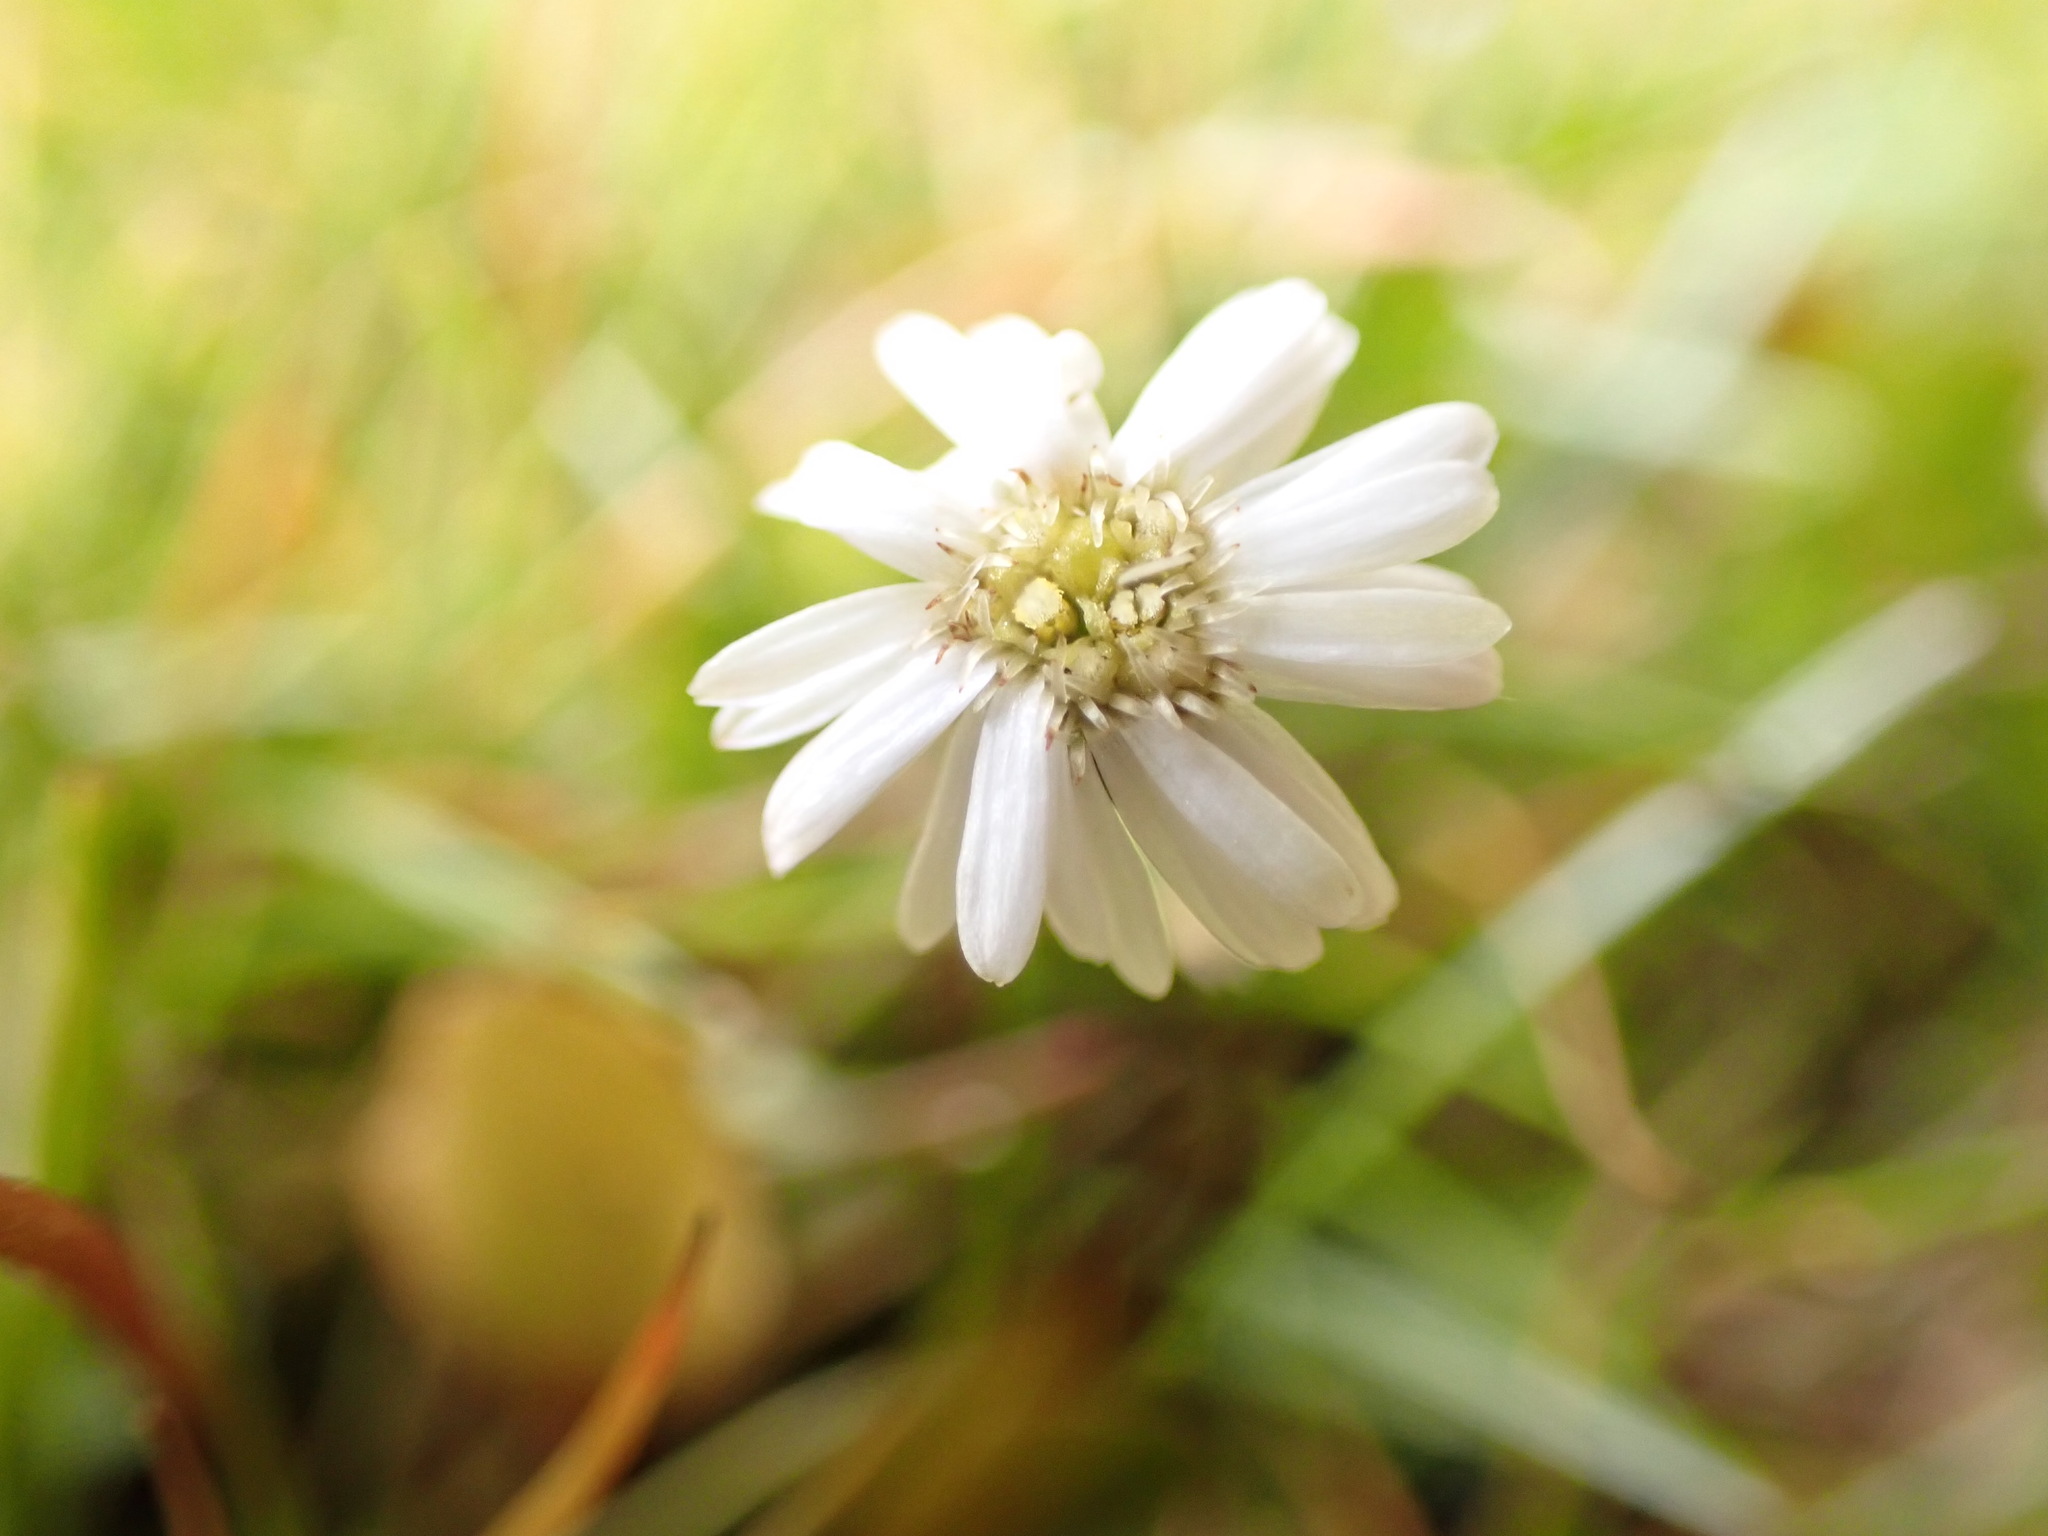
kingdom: Plantae
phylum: Tracheophyta
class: Magnoliopsida
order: Asterales
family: Asteraceae
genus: Lagenophora
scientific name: Lagenophora pumila
